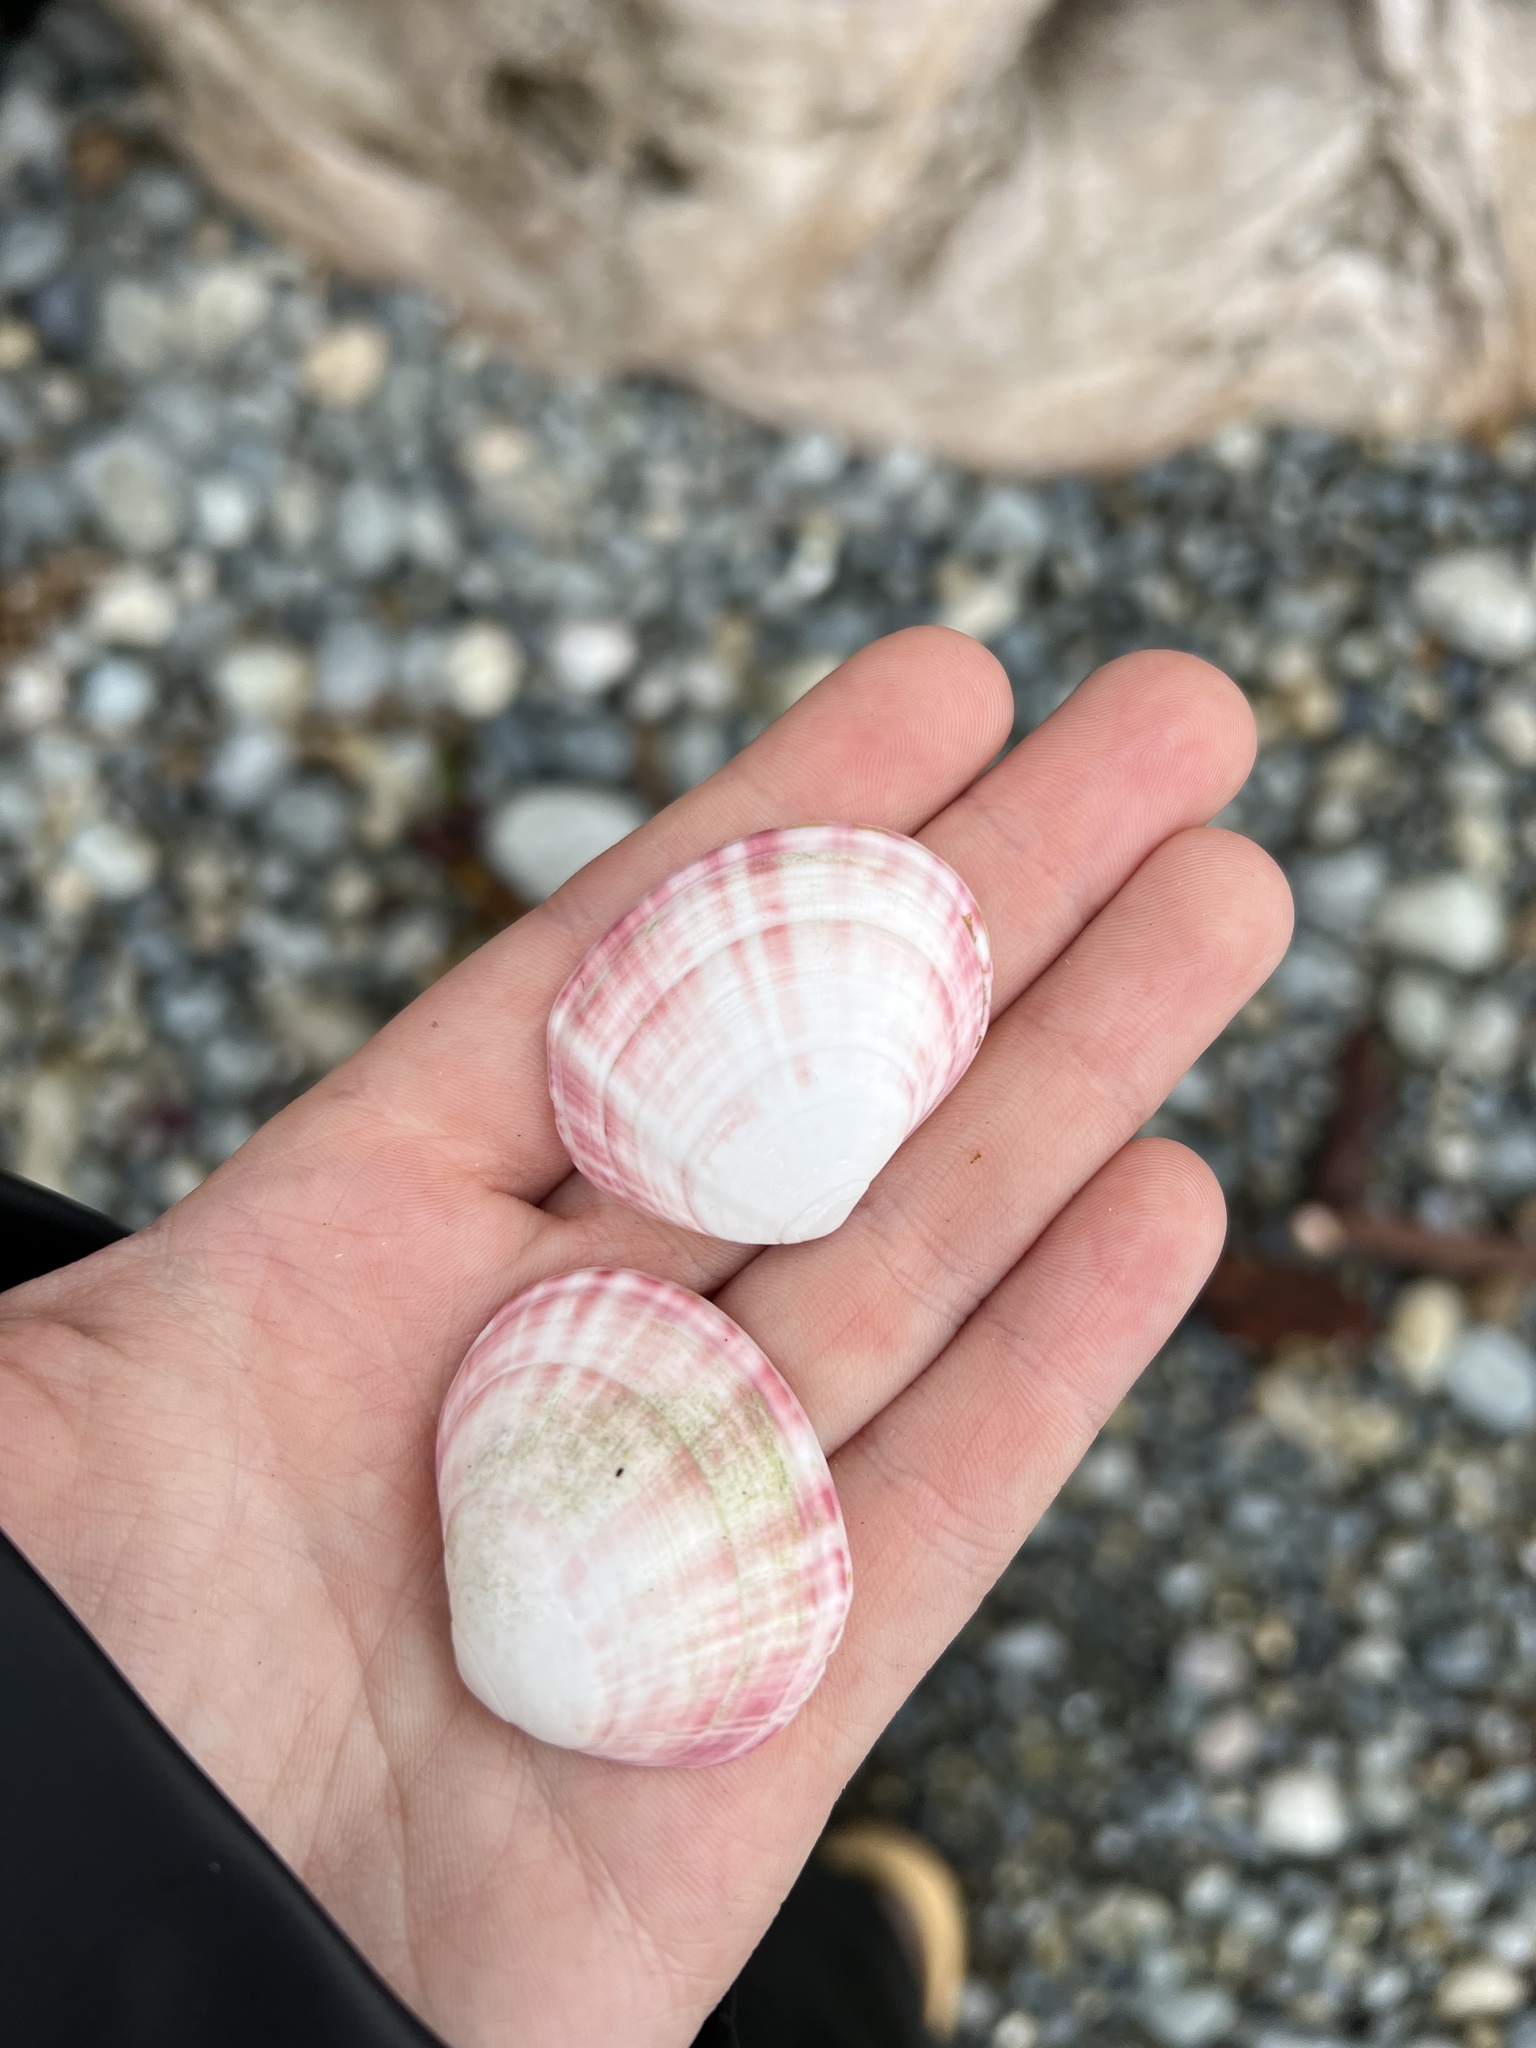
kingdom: Animalia
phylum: Mollusca
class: Bivalvia
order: Cardiida
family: Semelidae
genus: Semele
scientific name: Semele rubropicta
